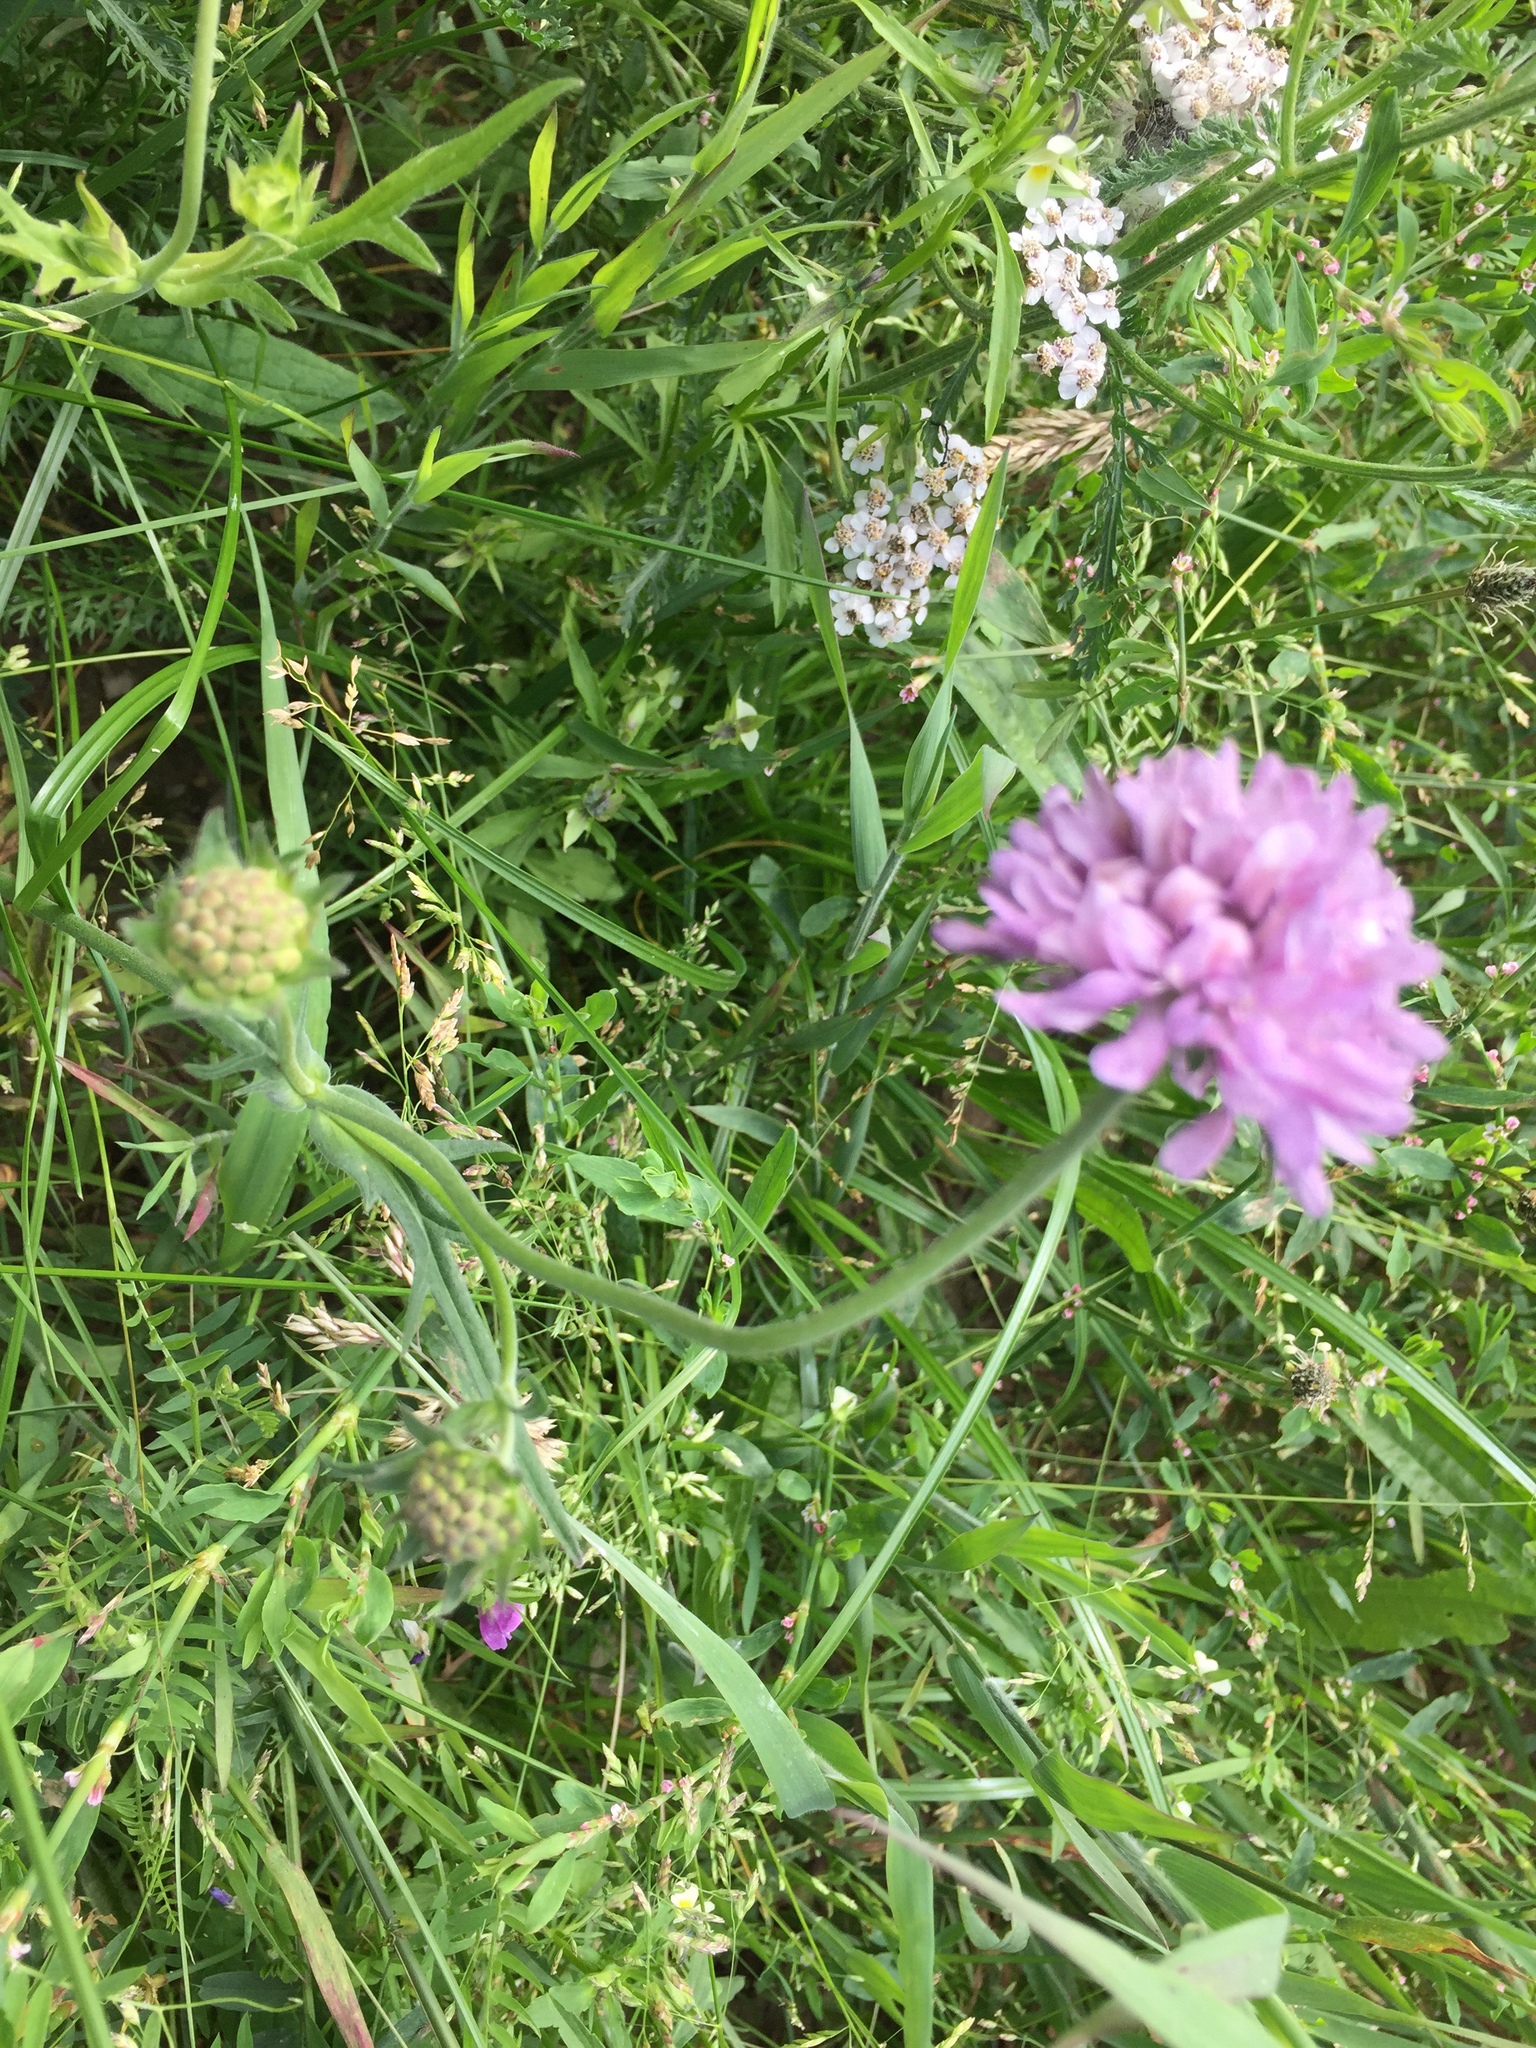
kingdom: Plantae
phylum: Tracheophyta
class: Magnoliopsida
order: Dipsacales
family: Caprifoliaceae
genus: Knautia
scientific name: Knautia arvensis
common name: Field scabiosa
